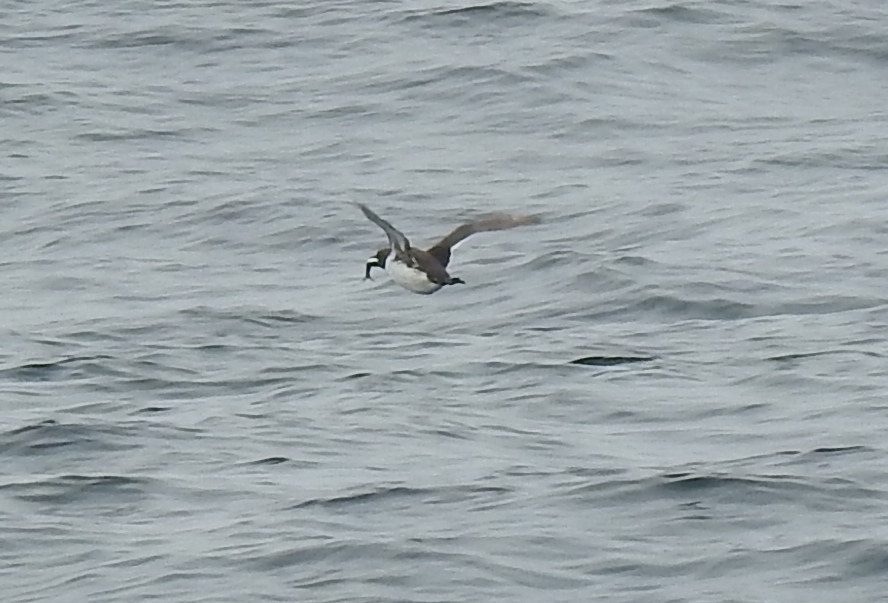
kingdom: Animalia
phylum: Chordata
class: Aves
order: Charadriiformes
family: Alcidae
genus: Uria
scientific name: Uria aalge
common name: Common murre
